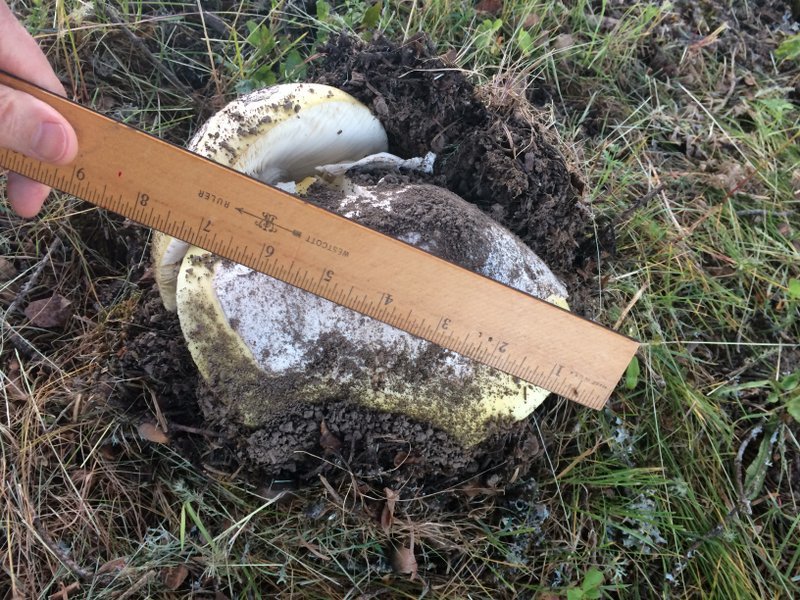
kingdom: Fungi
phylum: Basidiomycota
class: Agaricomycetes
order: Agaricales
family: Amanitaceae
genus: Amanita
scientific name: Amanita vernicoccora
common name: Spring coccora
